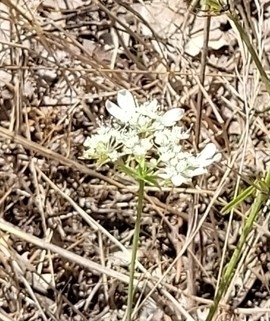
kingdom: Plantae
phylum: Tracheophyta
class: Magnoliopsida
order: Apiales
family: Apiaceae
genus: Orlaya
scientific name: Orlaya grandiflora
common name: White lace flower
